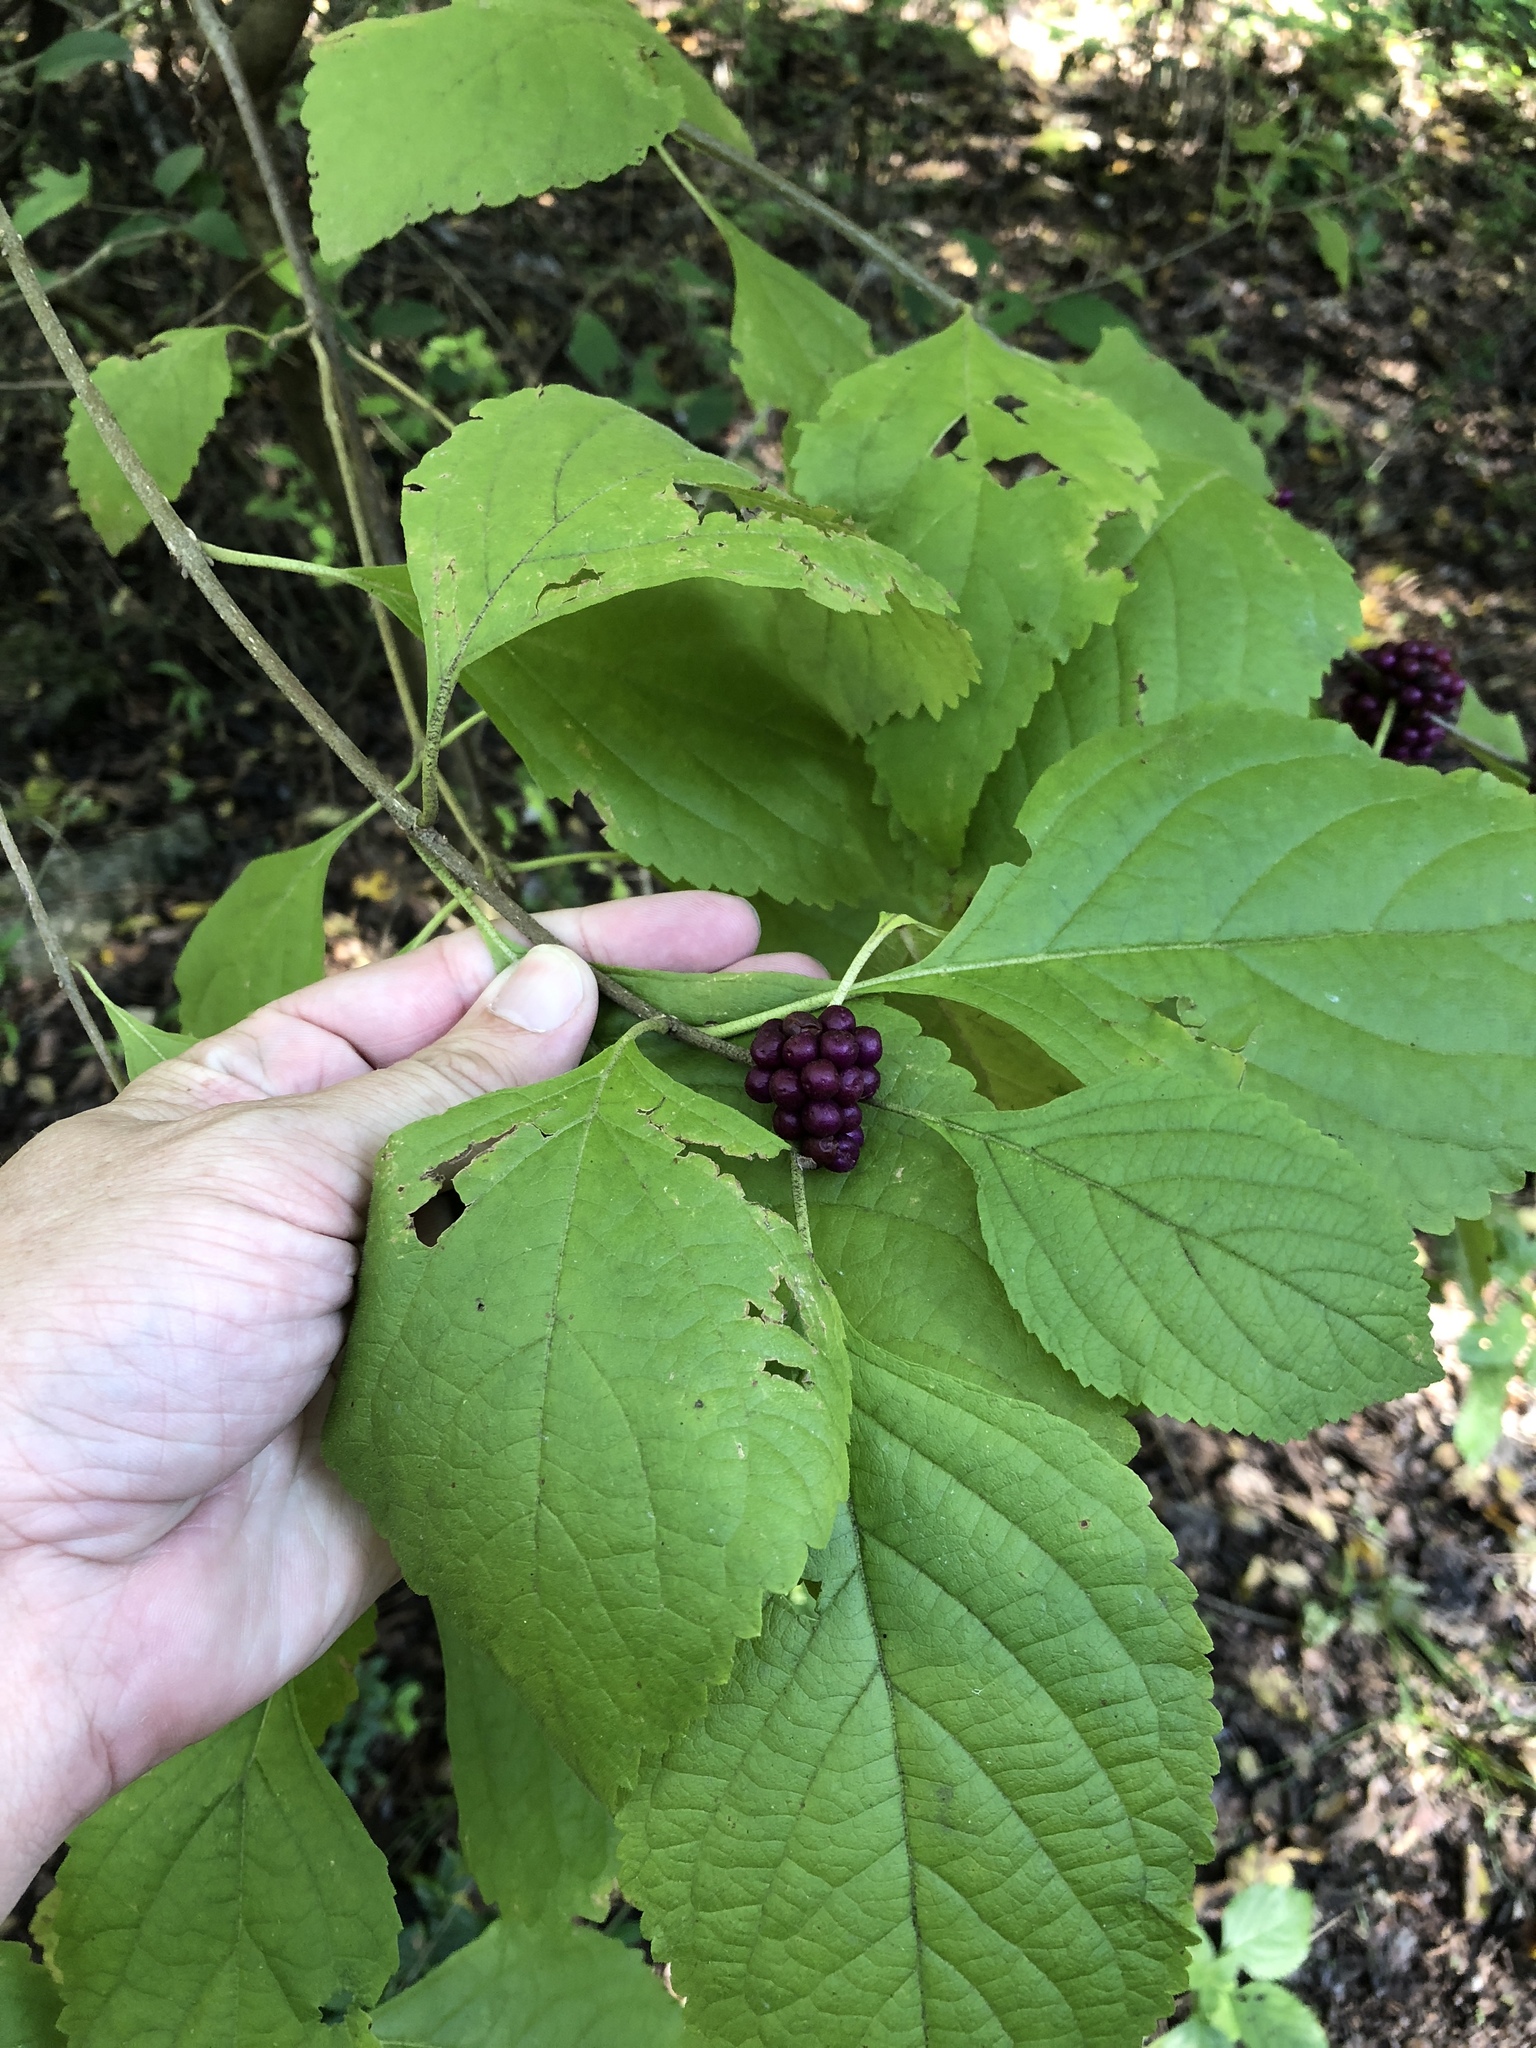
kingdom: Plantae
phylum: Tracheophyta
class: Magnoliopsida
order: Lamiales
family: Lamiaceae
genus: Callicarpa
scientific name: Callicarpa americana
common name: American beautyberry
